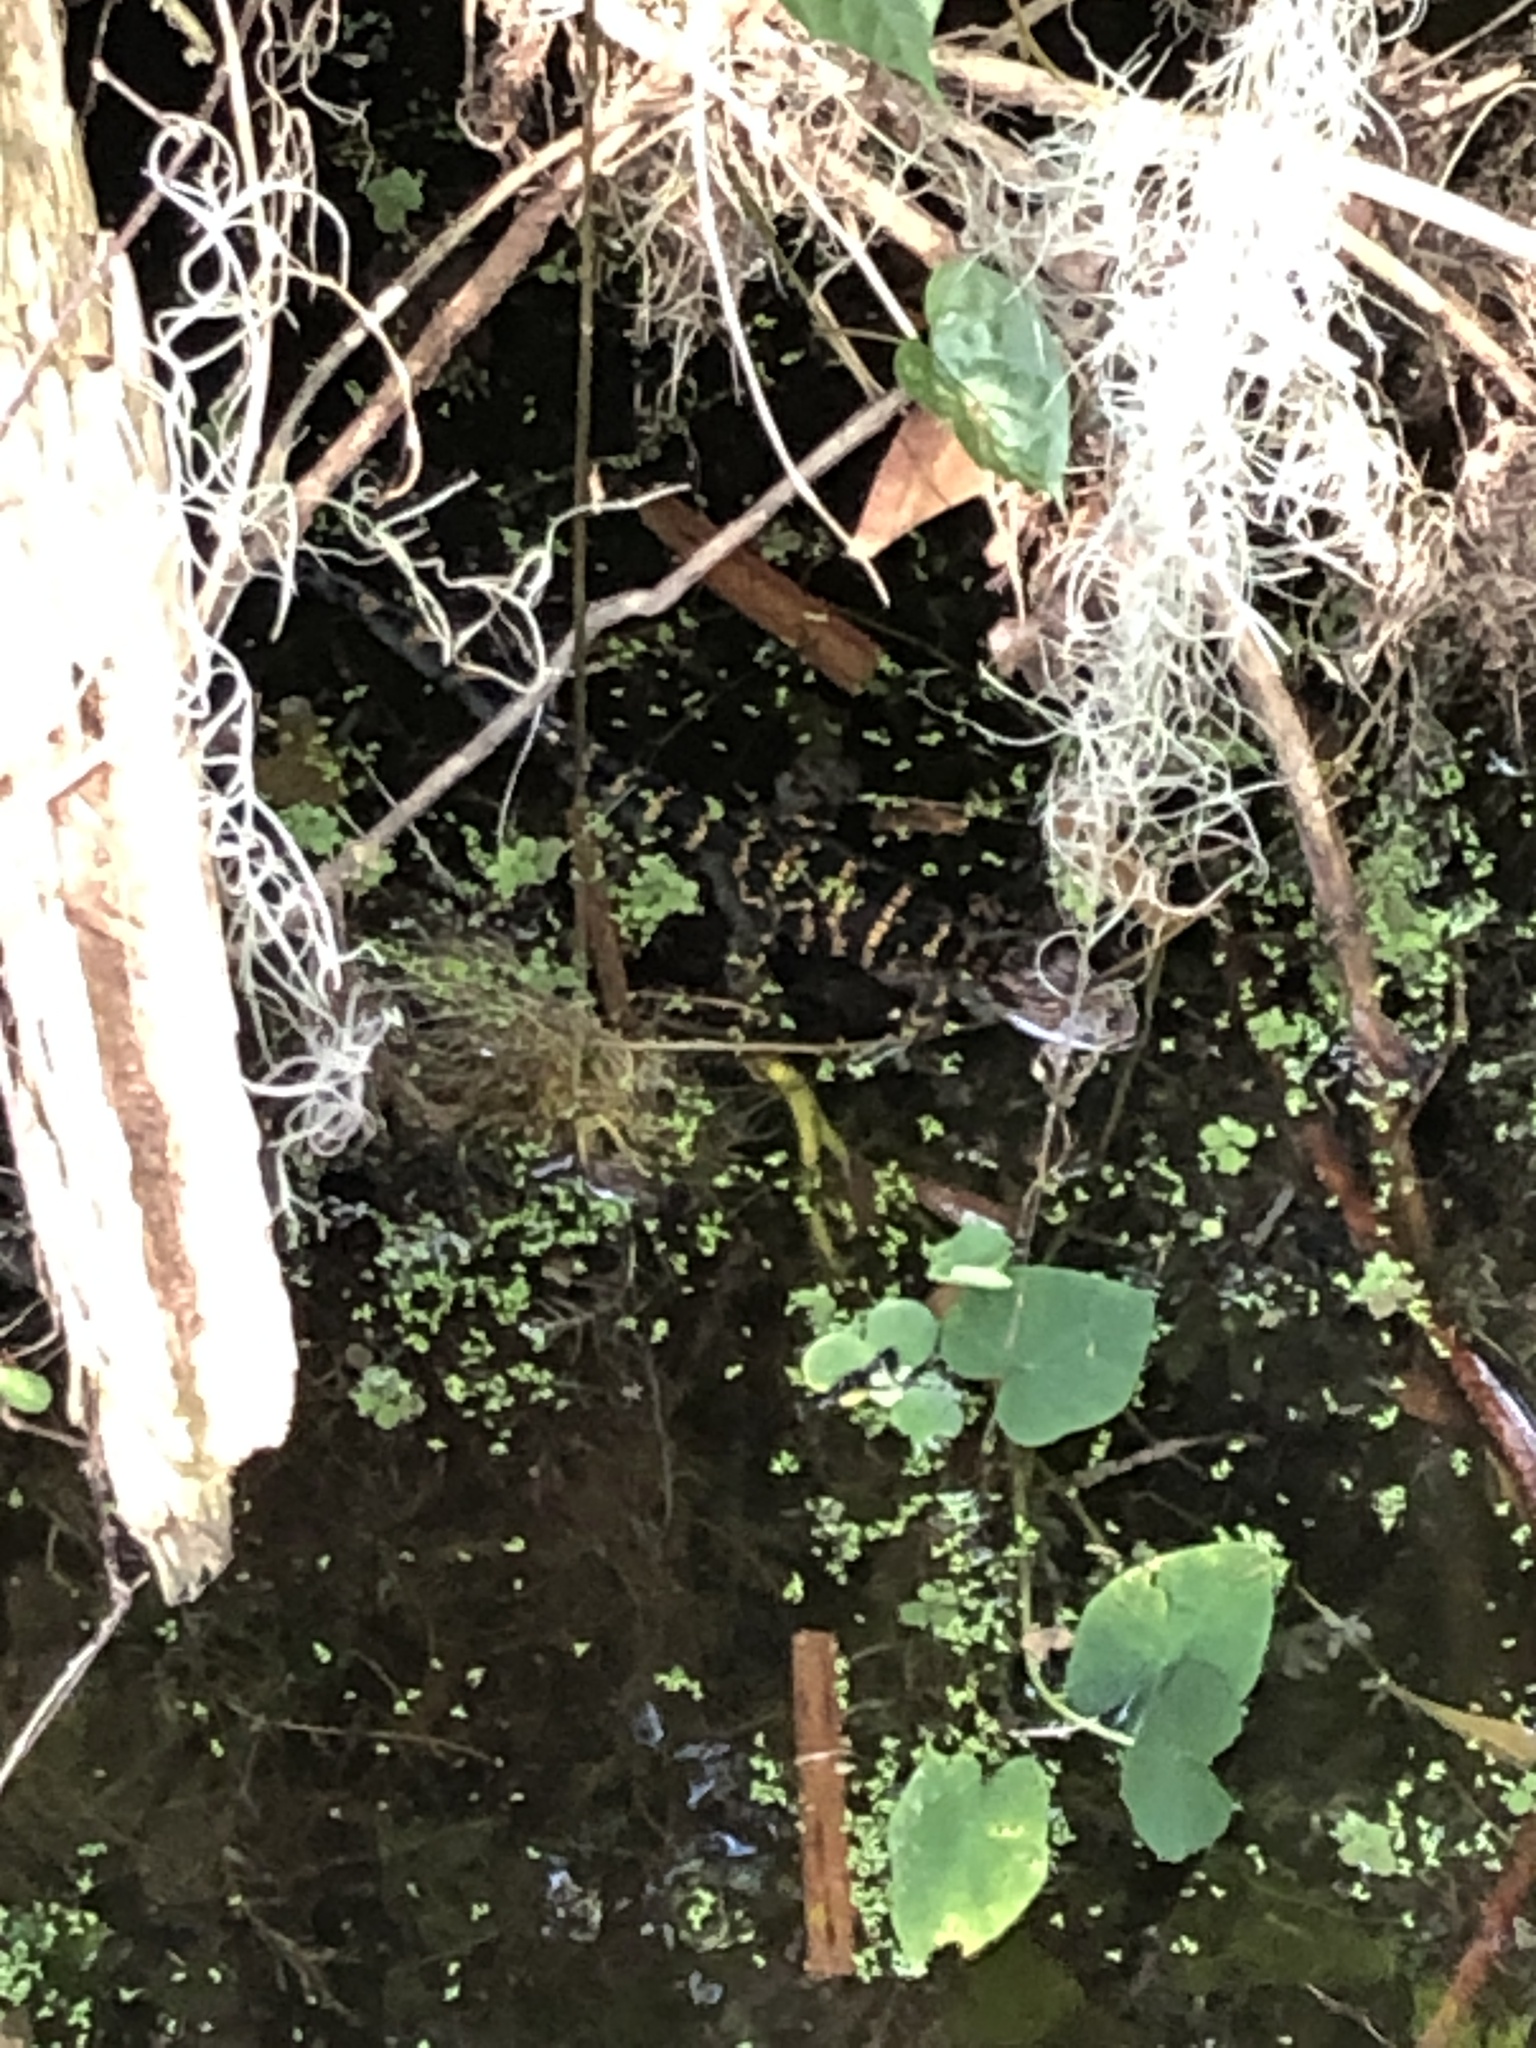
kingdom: Animalia
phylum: Chordata
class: Crocodylia
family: Alligatoridae
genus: Alligator
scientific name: Alligator mississippiensis
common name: American alligator
